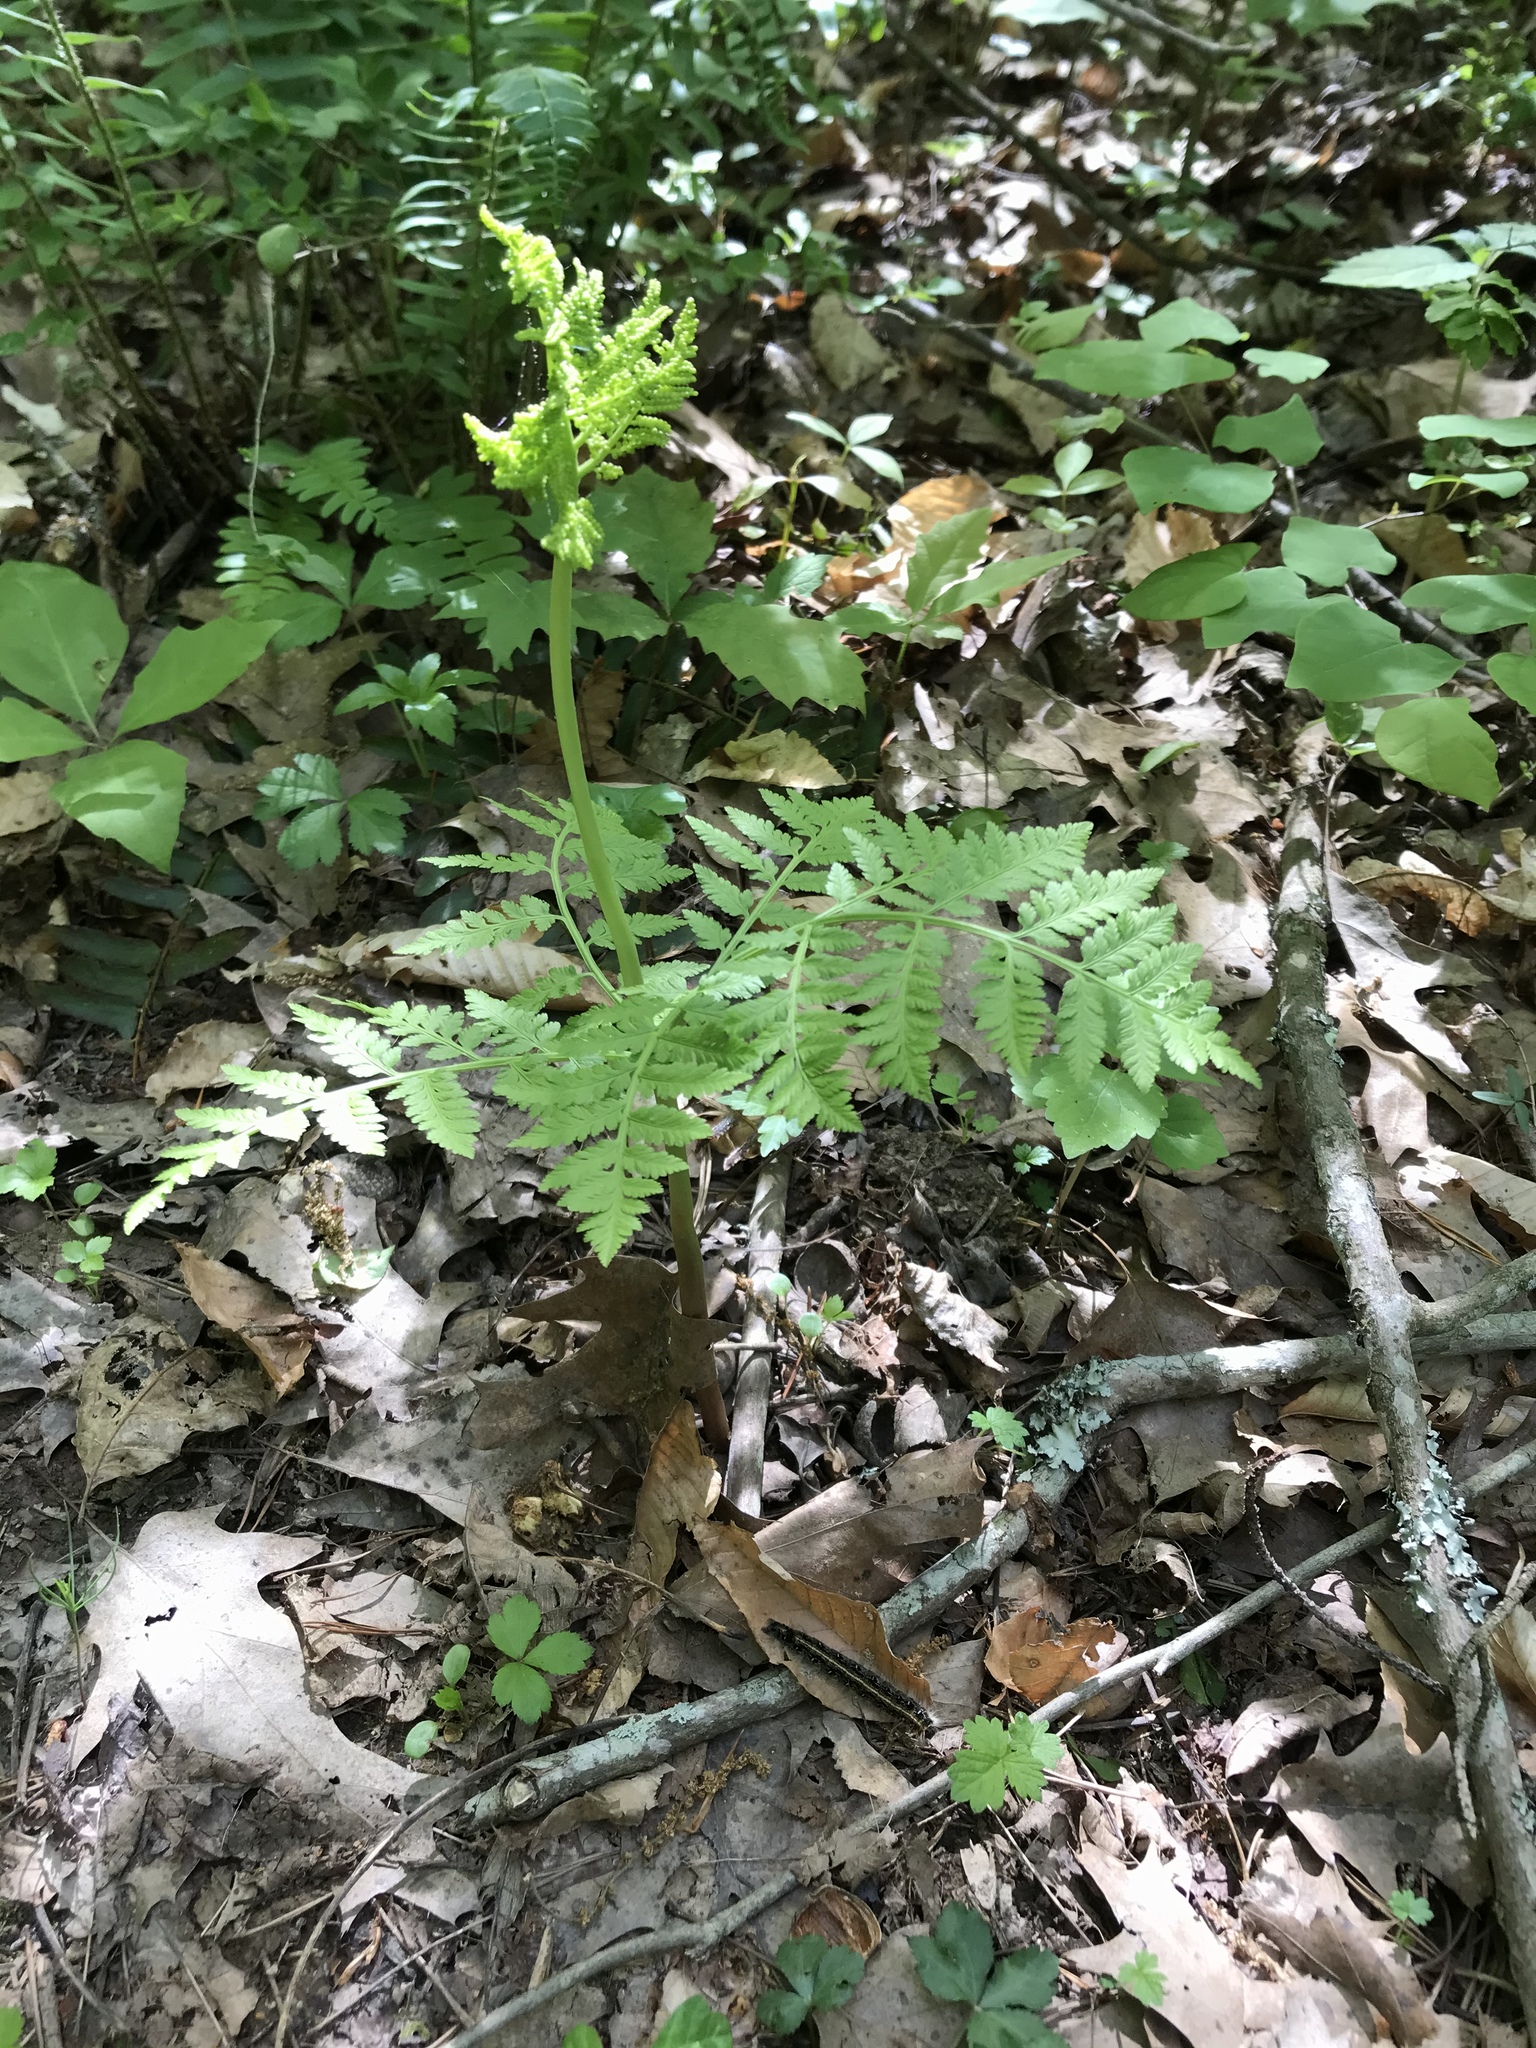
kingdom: Plantae
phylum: Tracheophyta
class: Polypodiopsida
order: Ophioglossales
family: Ophioglossaceae
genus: Botrypus
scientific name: Botrypus virginianus
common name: Common grapefern
